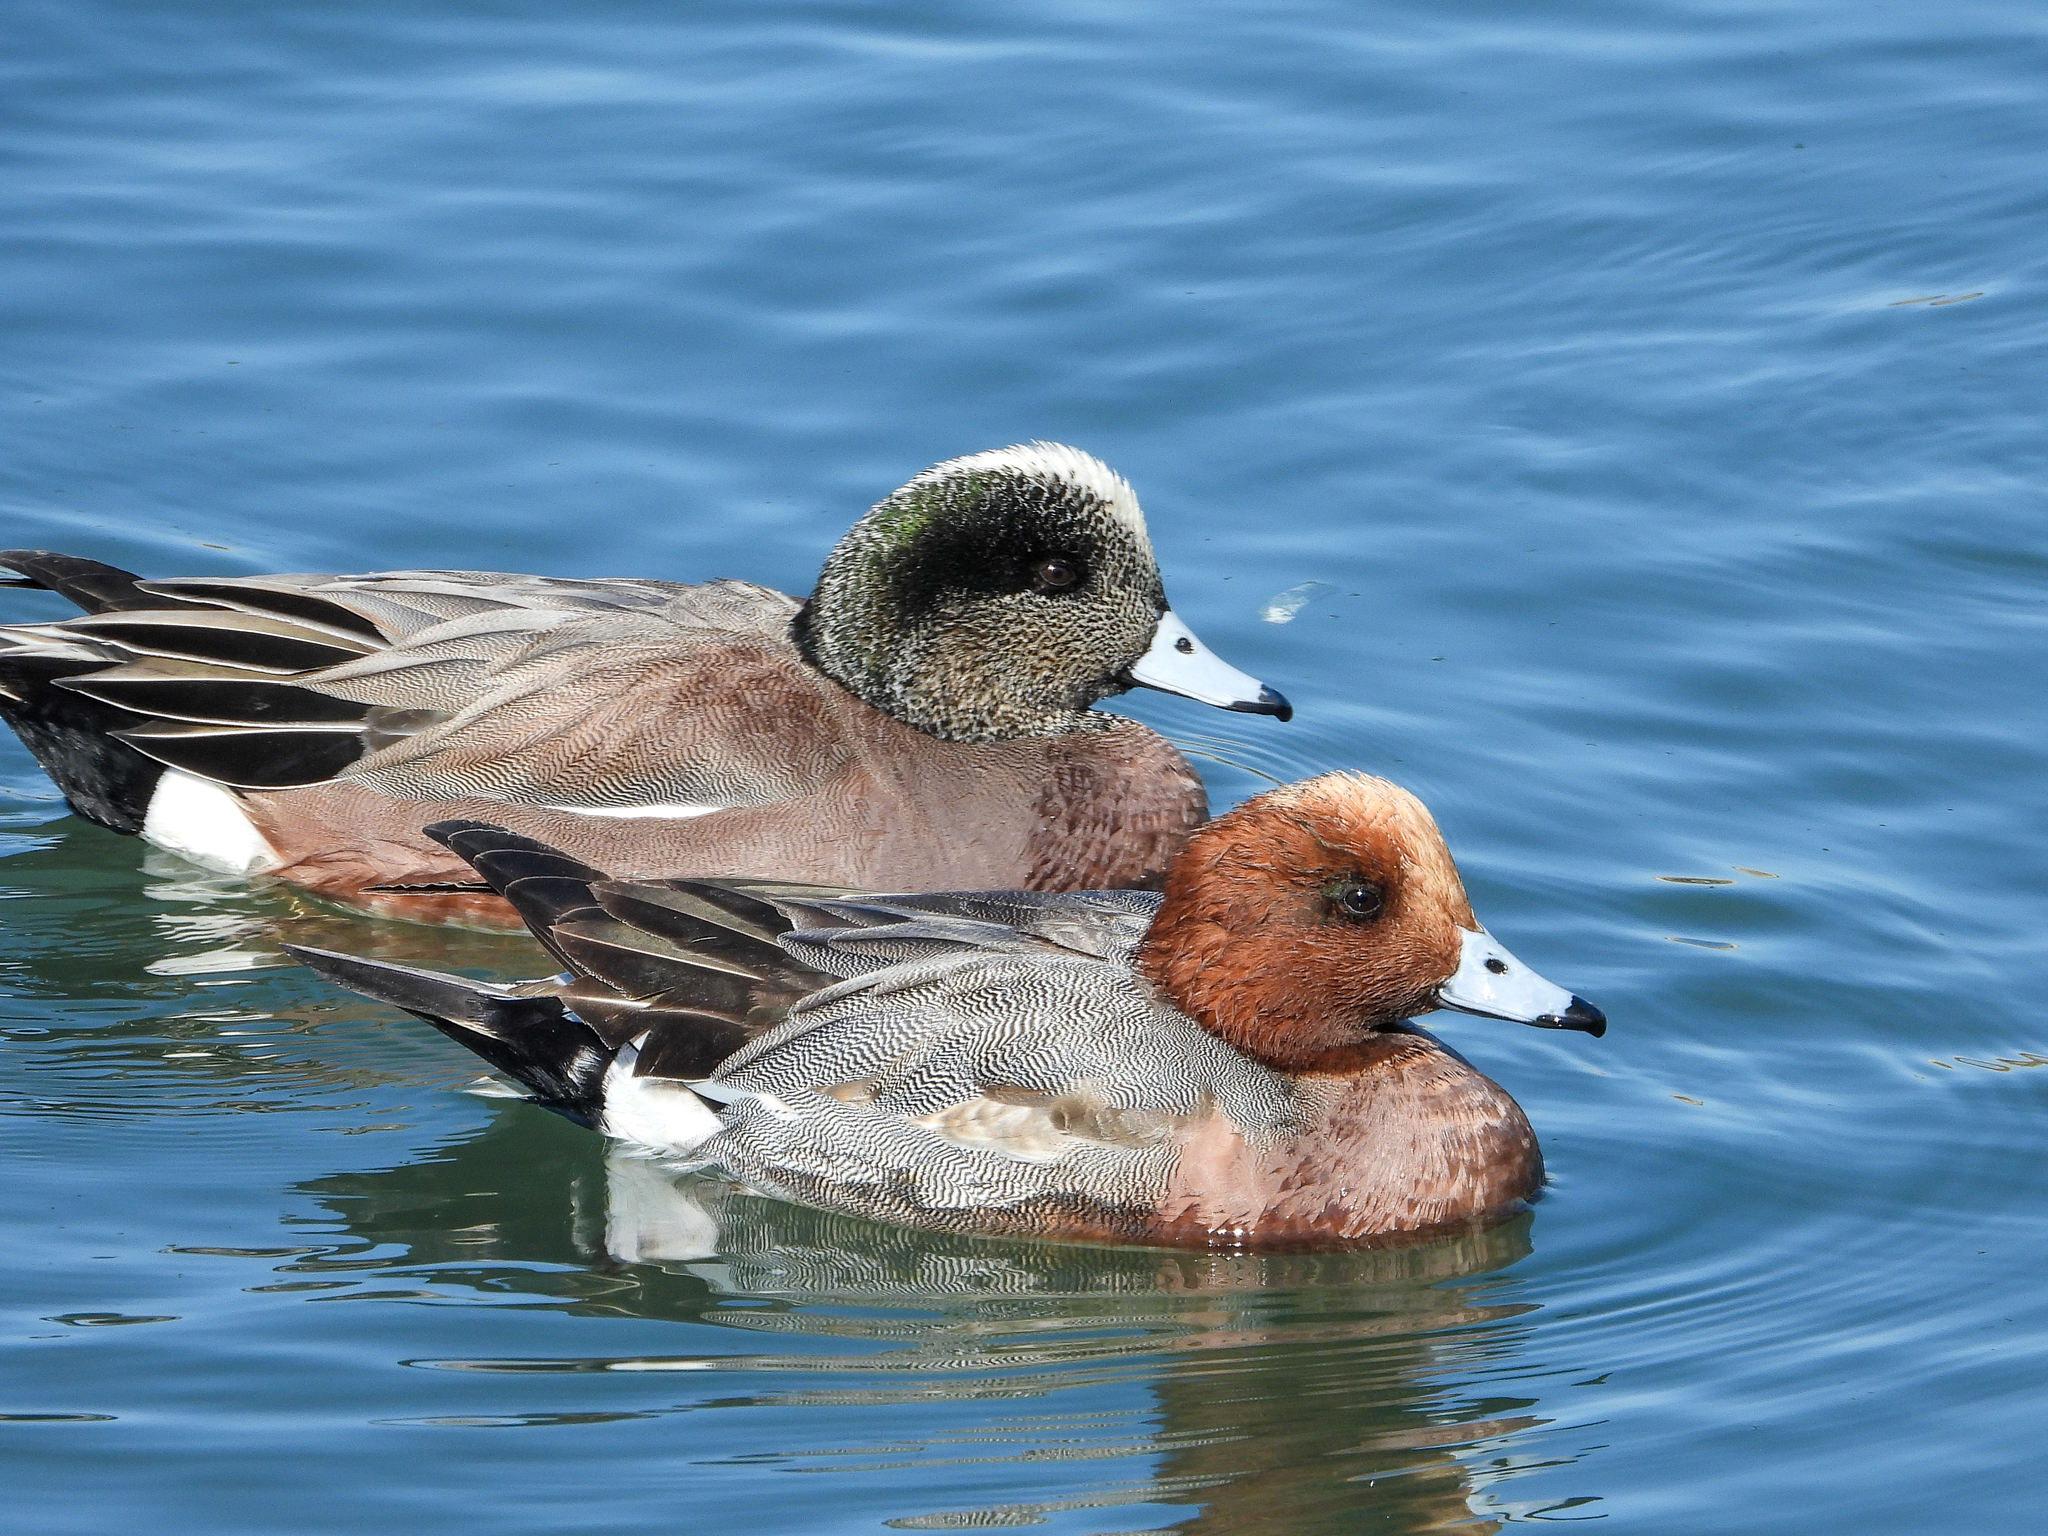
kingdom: Animalia
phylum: Chordata
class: Aves
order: Anseriformes
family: Anatidae
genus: Mareca
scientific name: Mareca americana
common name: American wigeon
